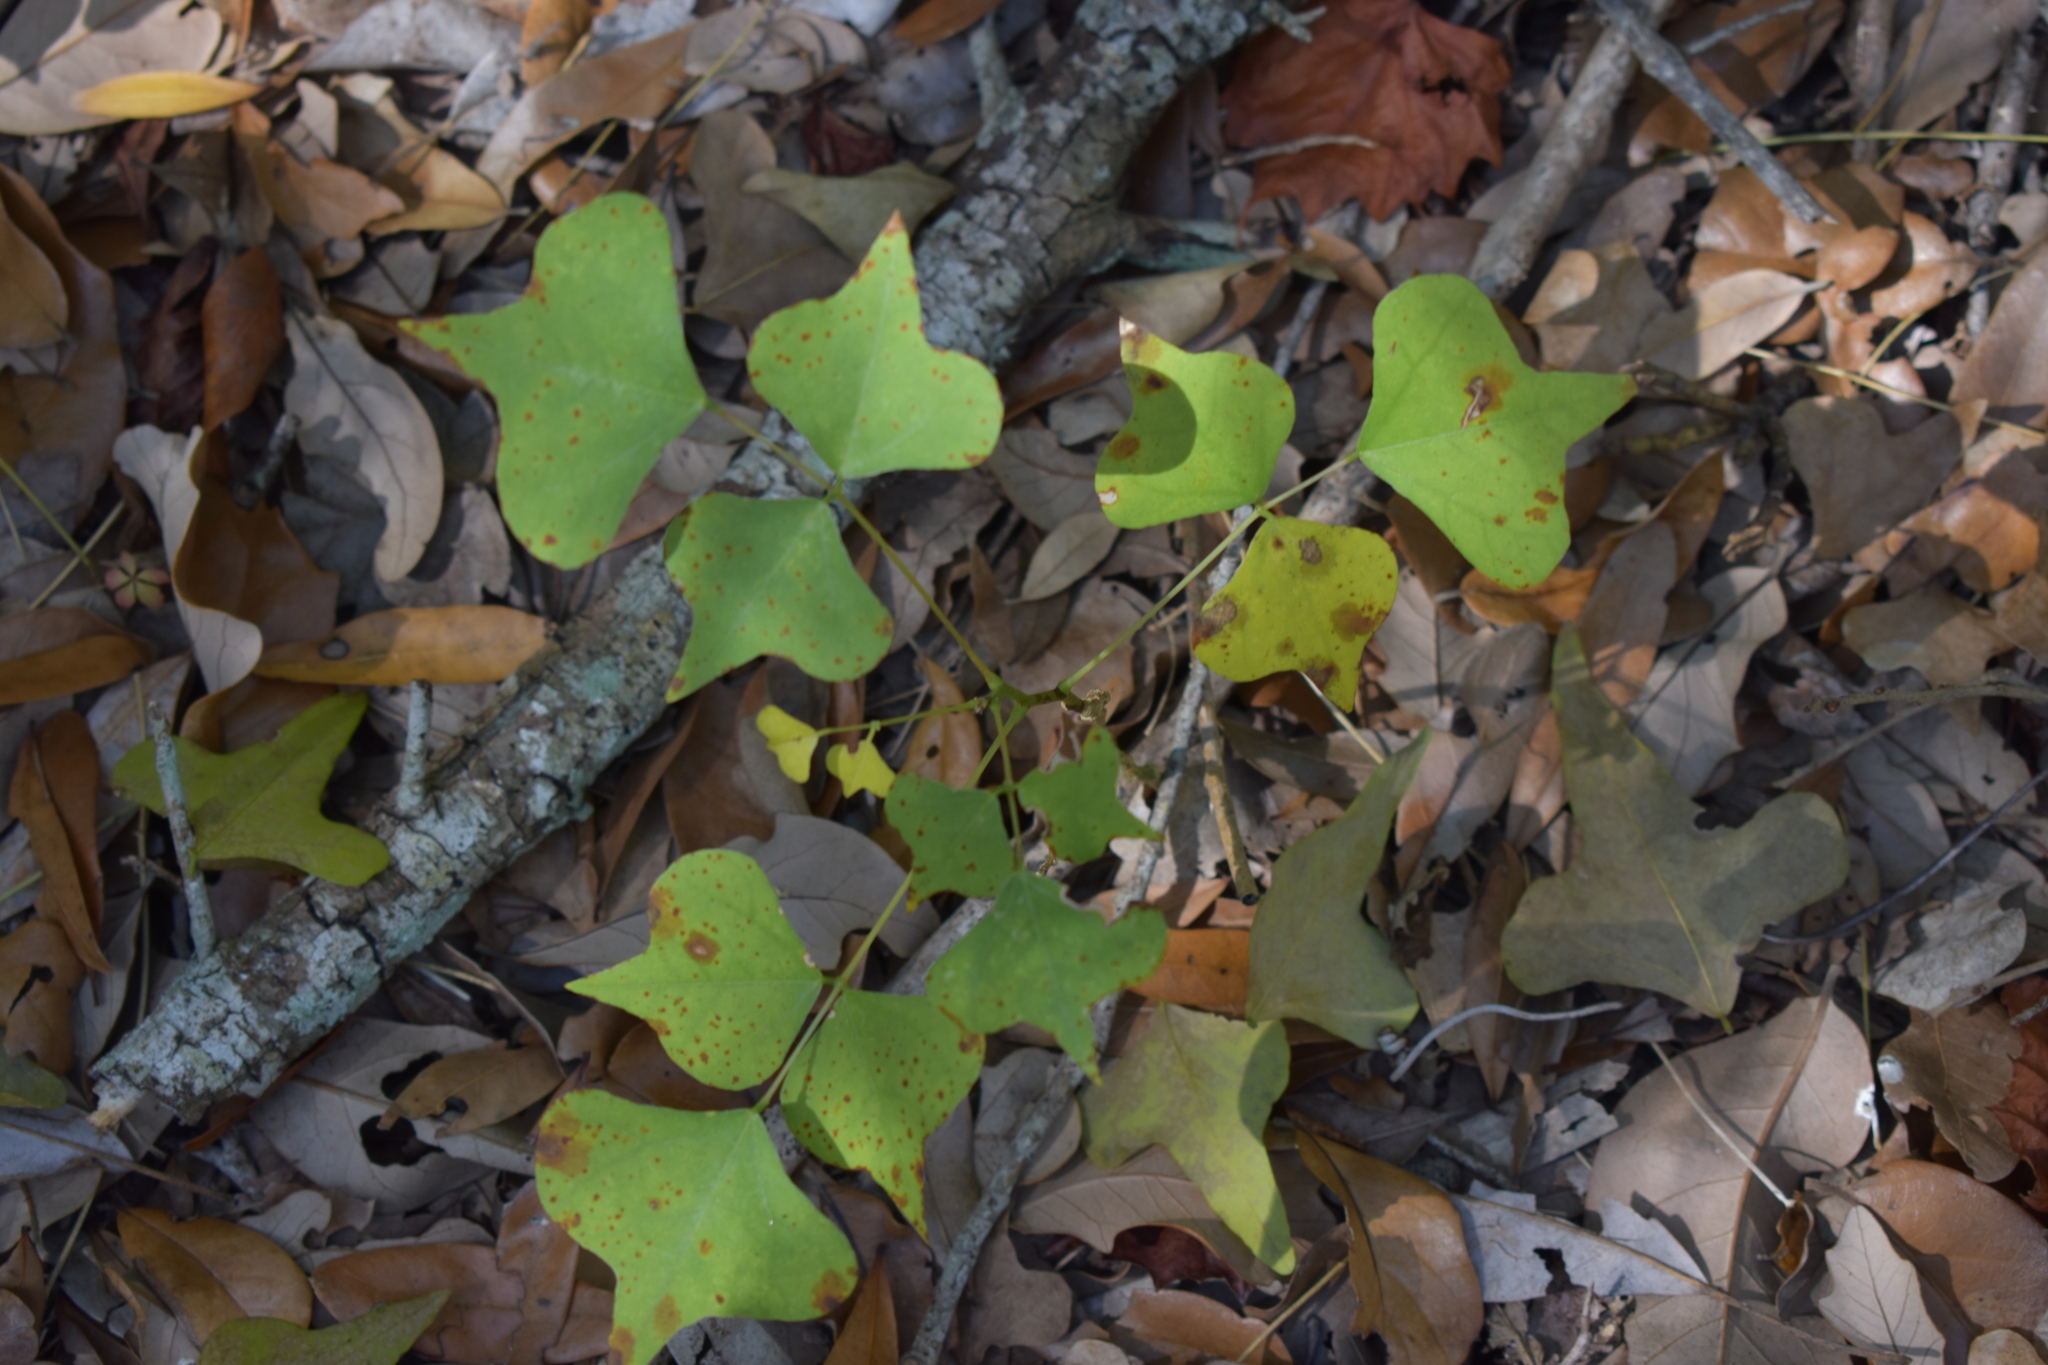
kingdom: Plantae
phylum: Tracheophyta
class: Magnoliopsida
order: Fabales
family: Fabaceae
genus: Erythrina
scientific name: Erythrina herbacea
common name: Coral-bean
